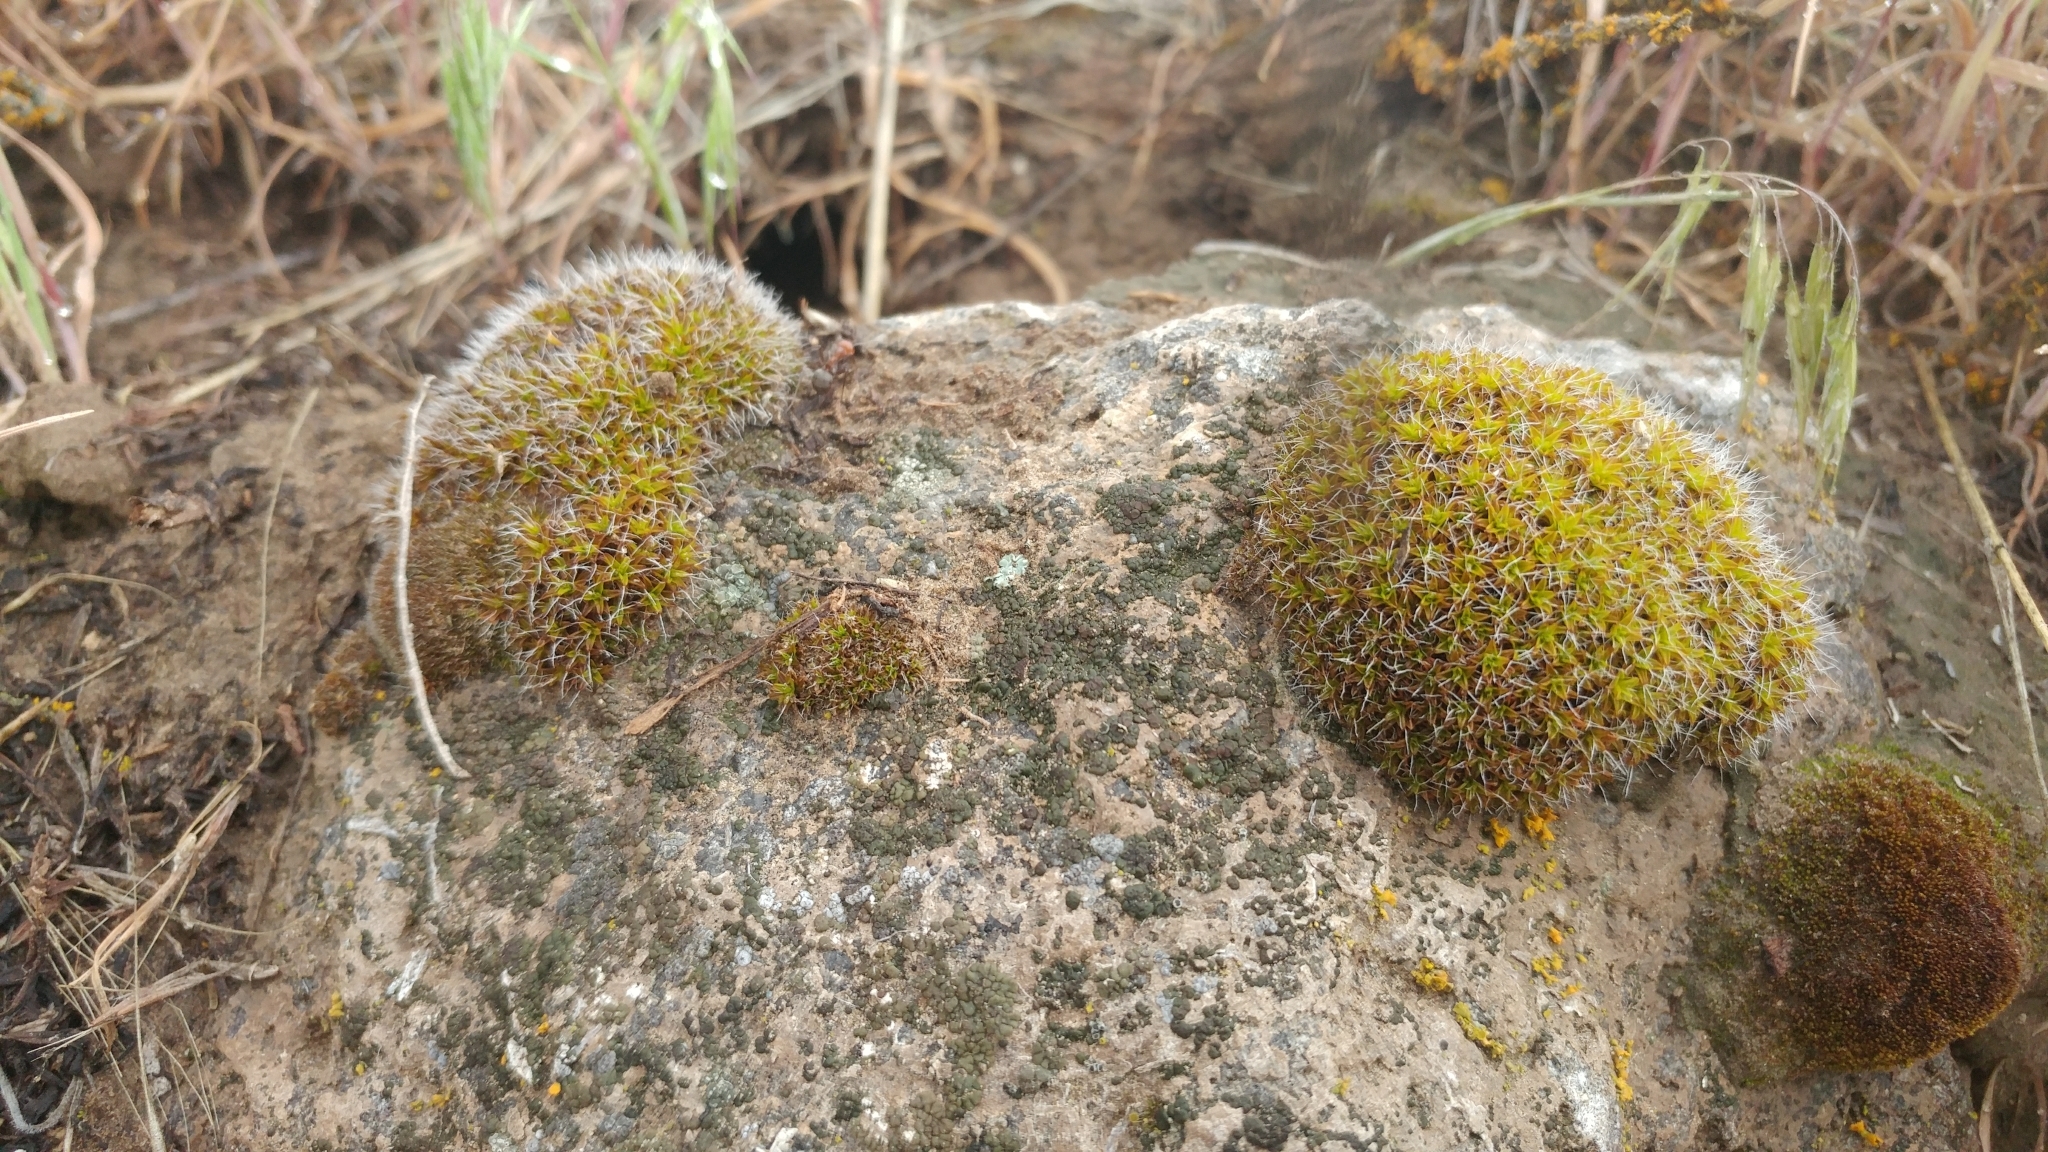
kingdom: Plantae
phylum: Bryophyta
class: Bryopsida
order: Pottiales
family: Pottiaceae
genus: Syntrichia
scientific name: Syntrichia ruralis
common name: Sidewalk screw moss
